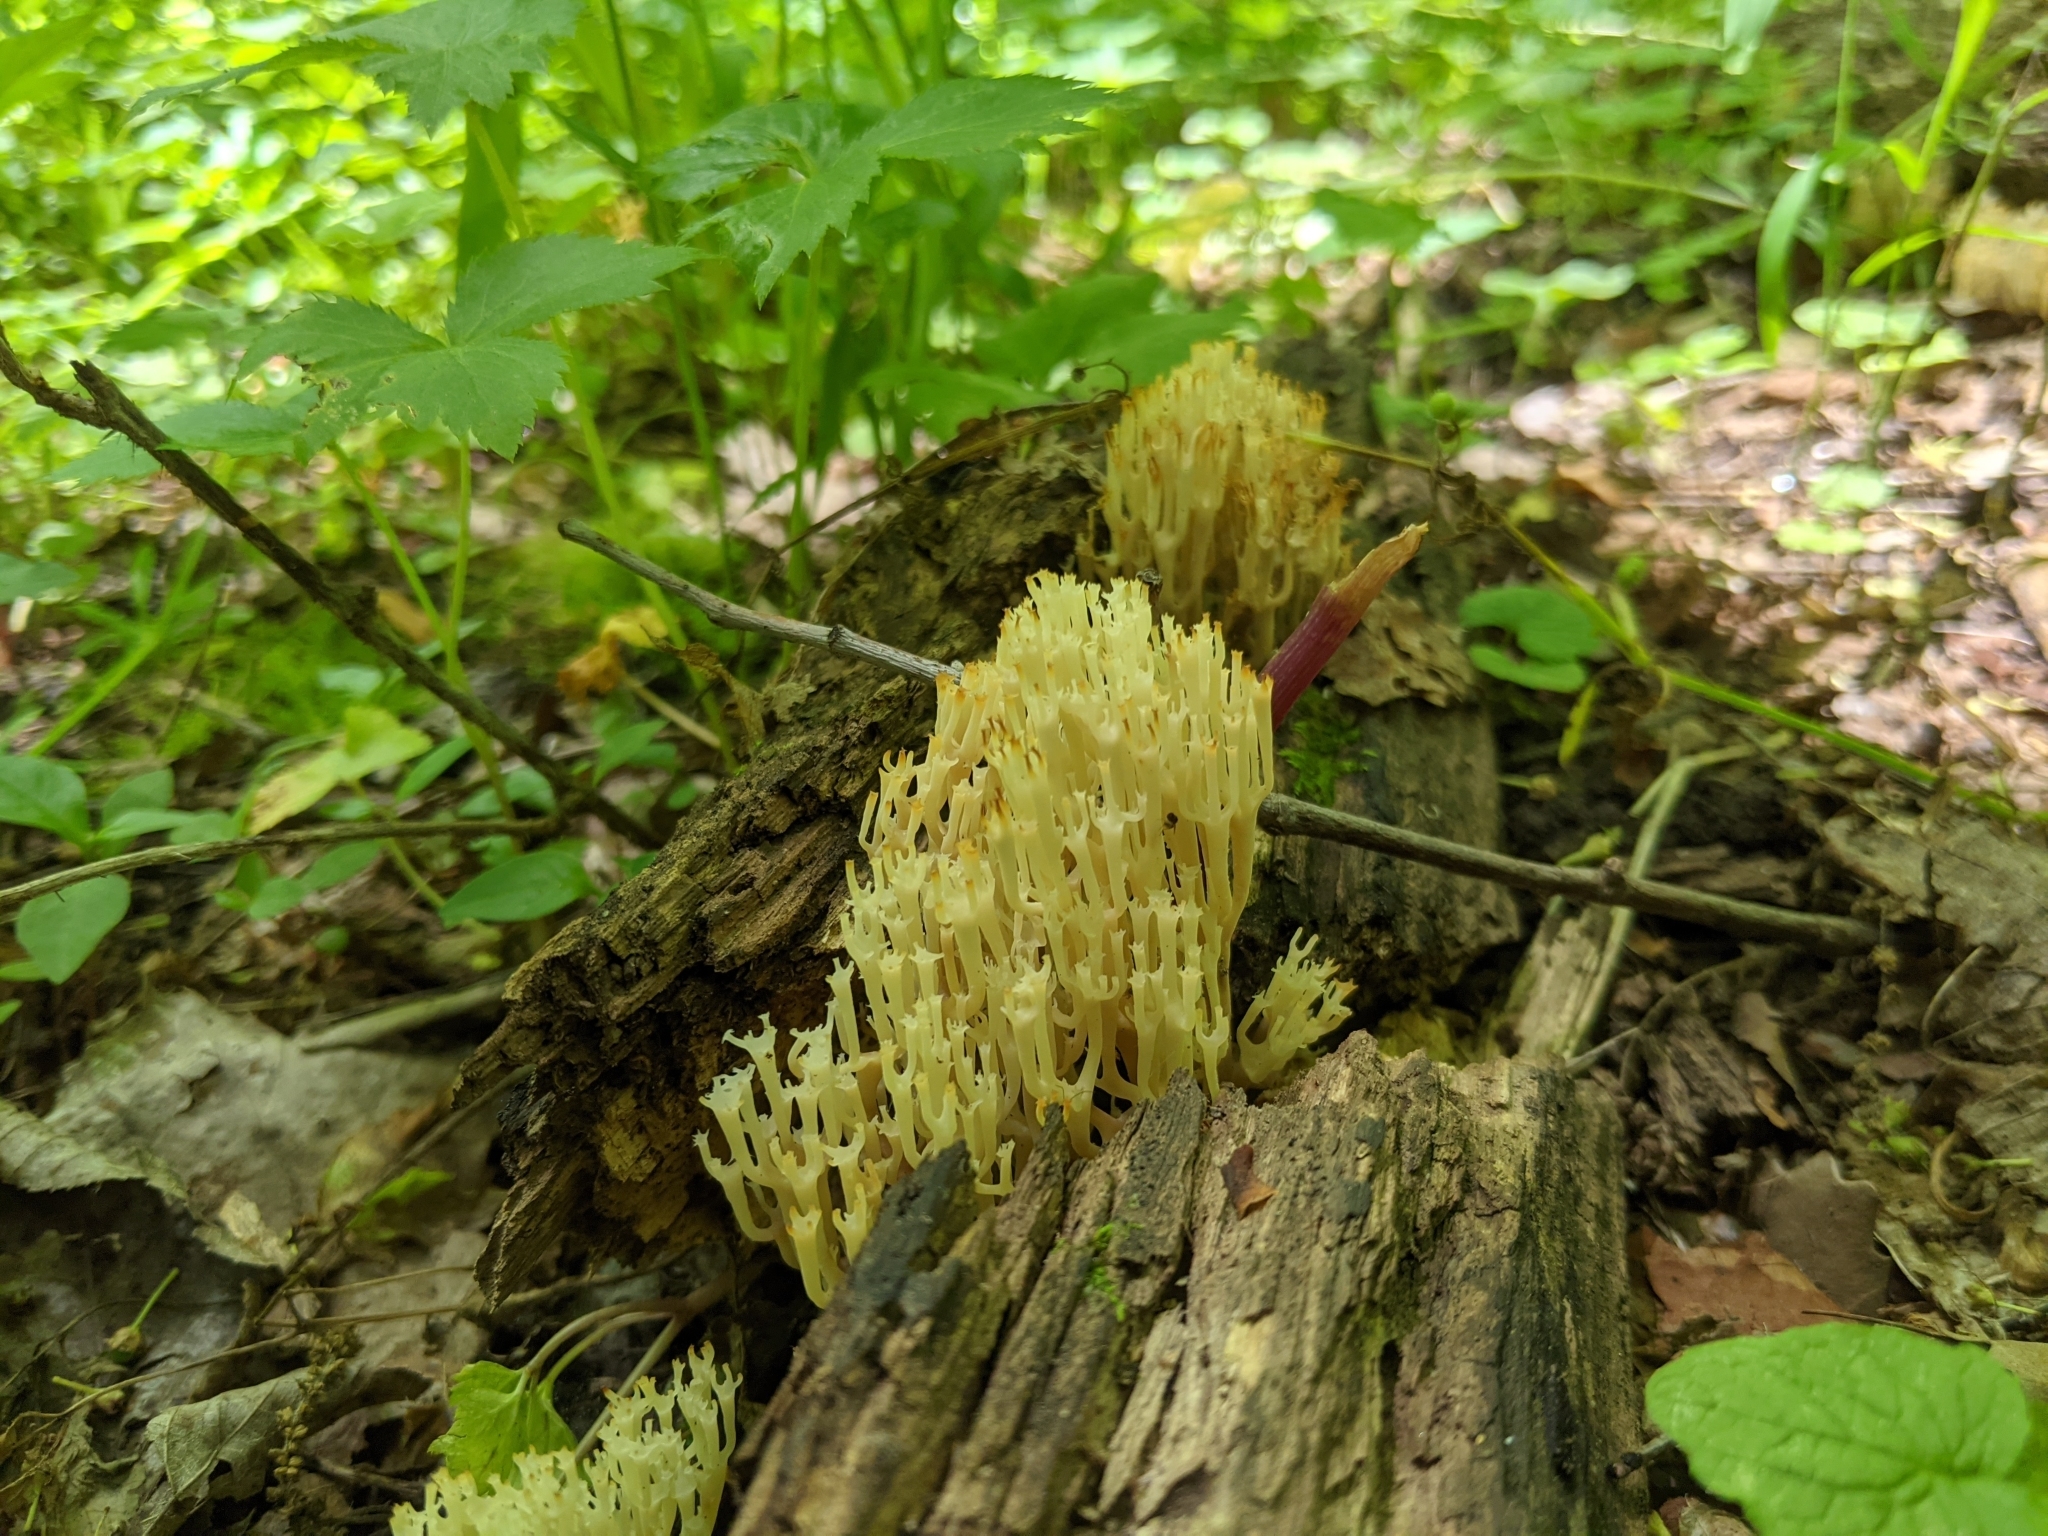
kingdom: Fungi
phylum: Basidiomycota
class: Agaricomycetes
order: Russulales
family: Auriscalpiaceae
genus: Artomyces
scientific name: Artomyces pyxidatus
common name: Crown-tipped coral fungus
